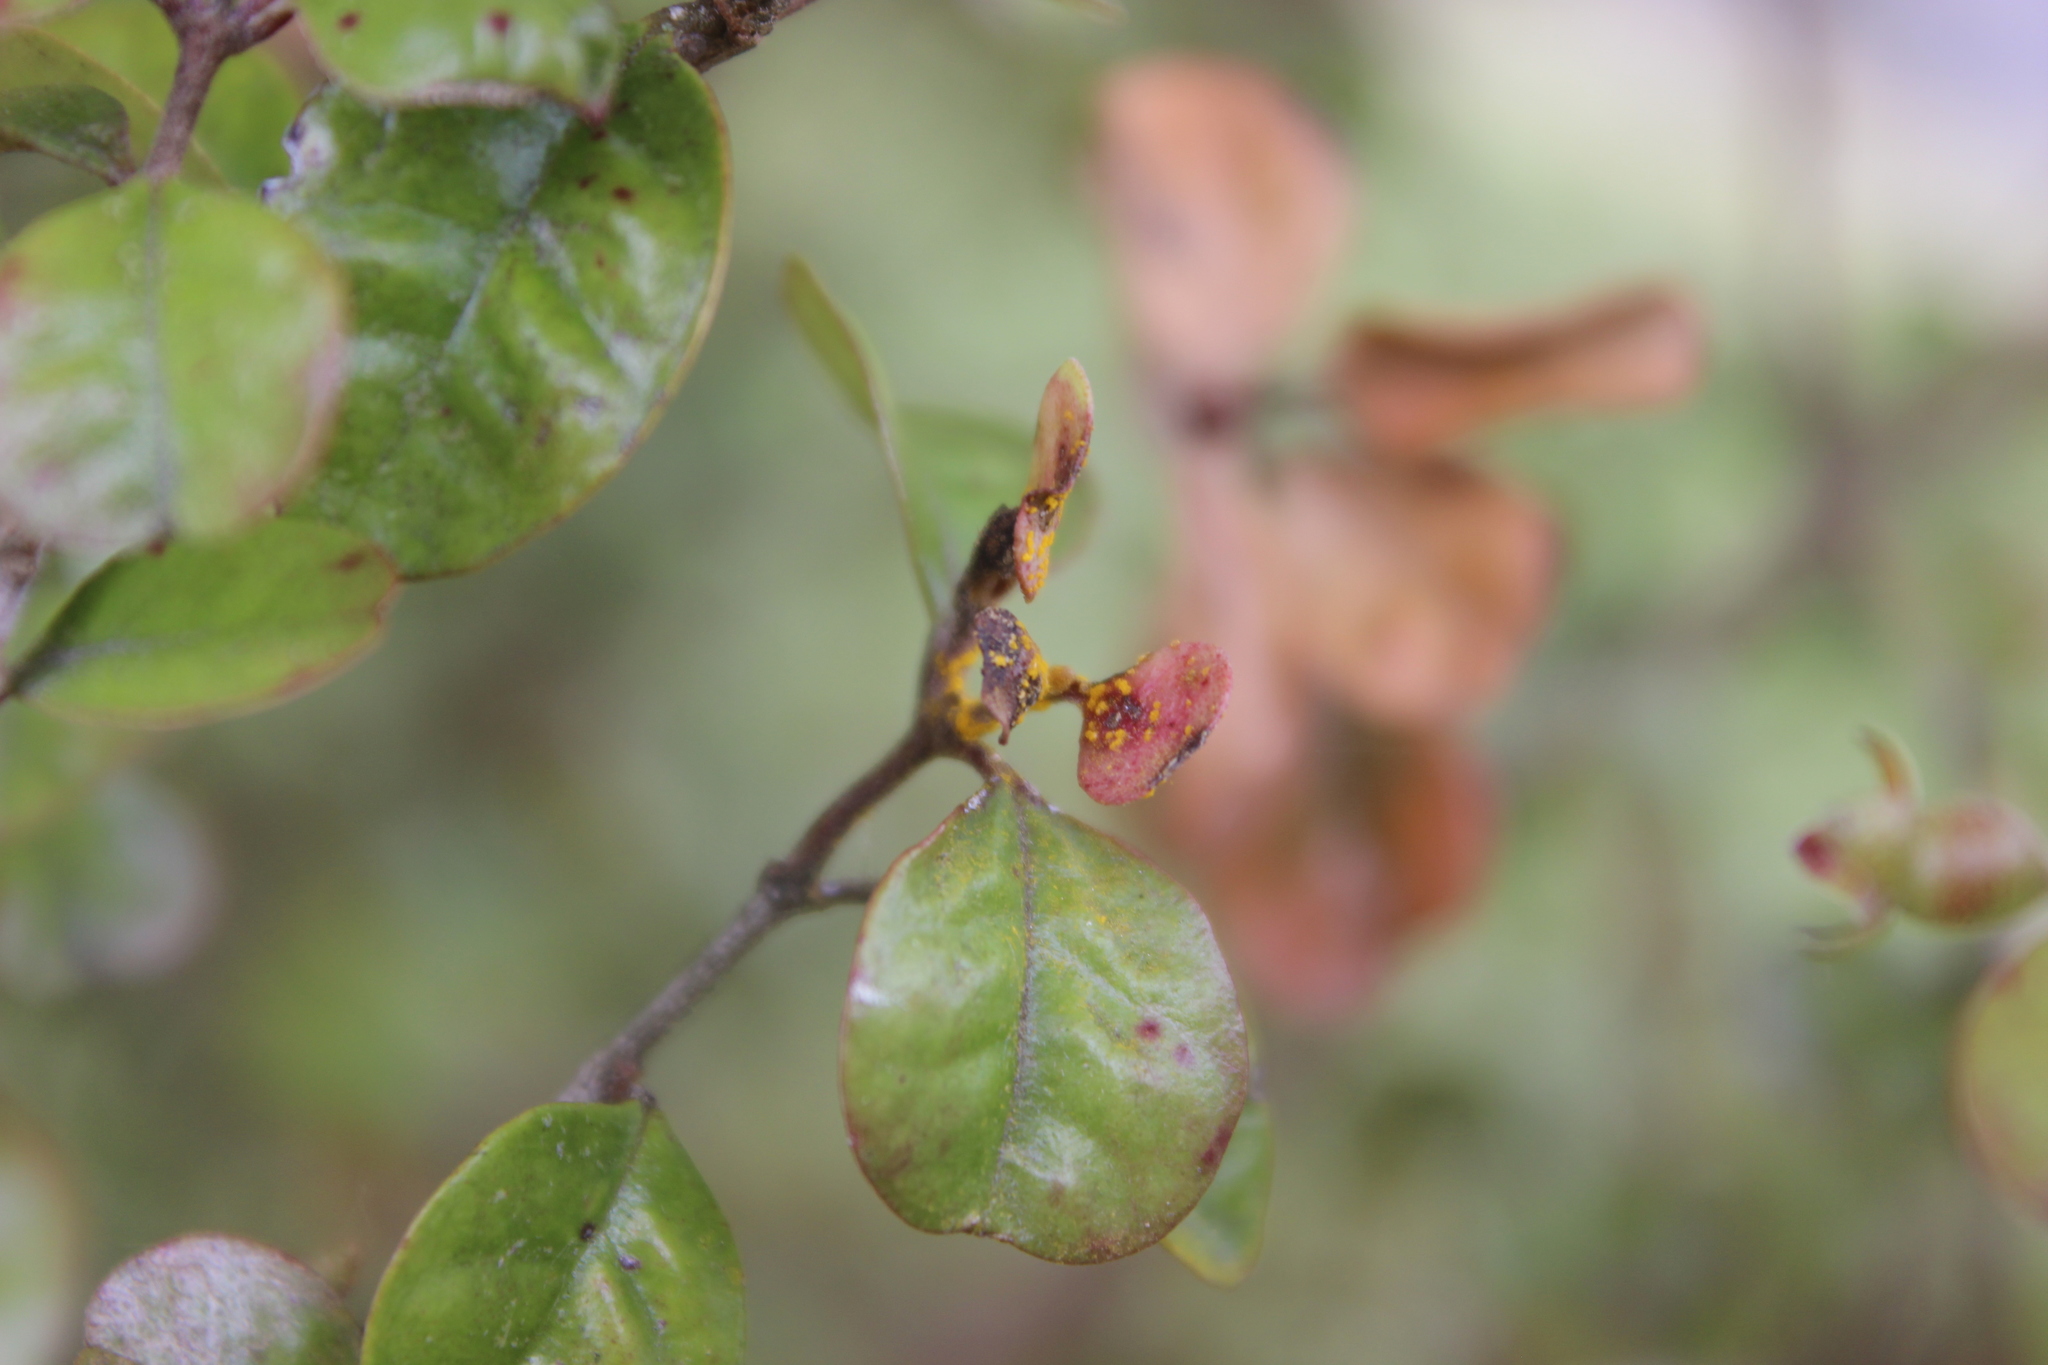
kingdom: Fungi
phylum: Basidiomycota
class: Pucciniomycetes
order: Pucciniales
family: Sphaerophragmiaceae
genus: Austropuccinia
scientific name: Austropuccinia psidii
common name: Myrtle rust
